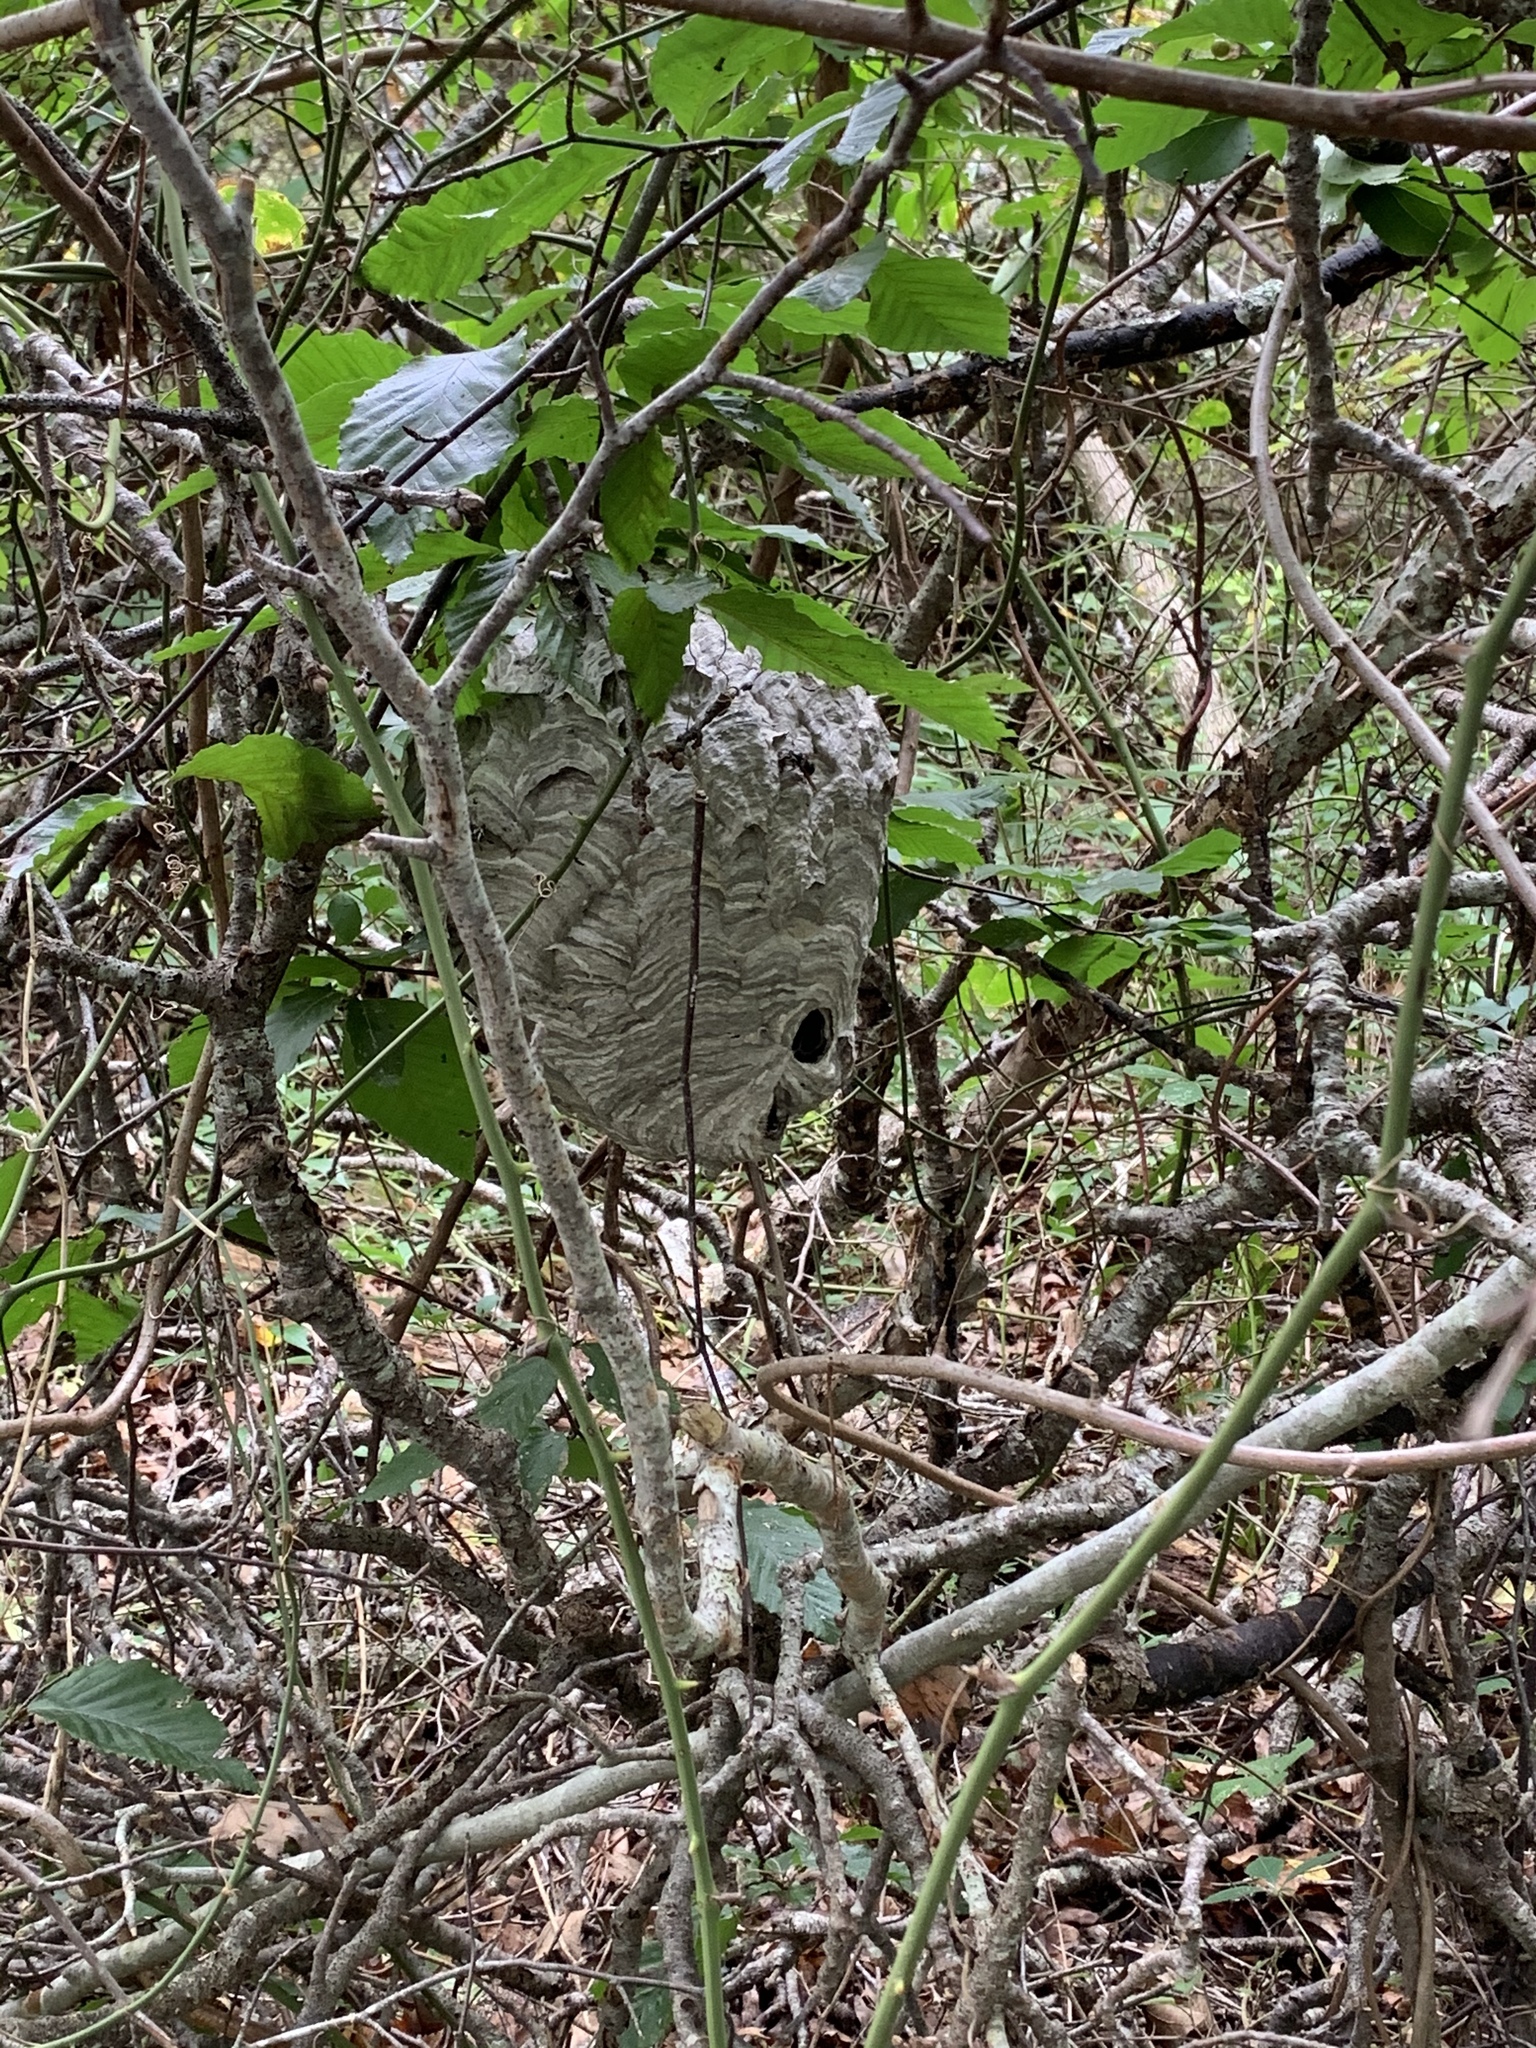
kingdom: Animalia
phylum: Arthropoda
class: Insecta
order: Hymenoptera
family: Vespidae
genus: Dolichovespula
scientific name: Dolichovespula
